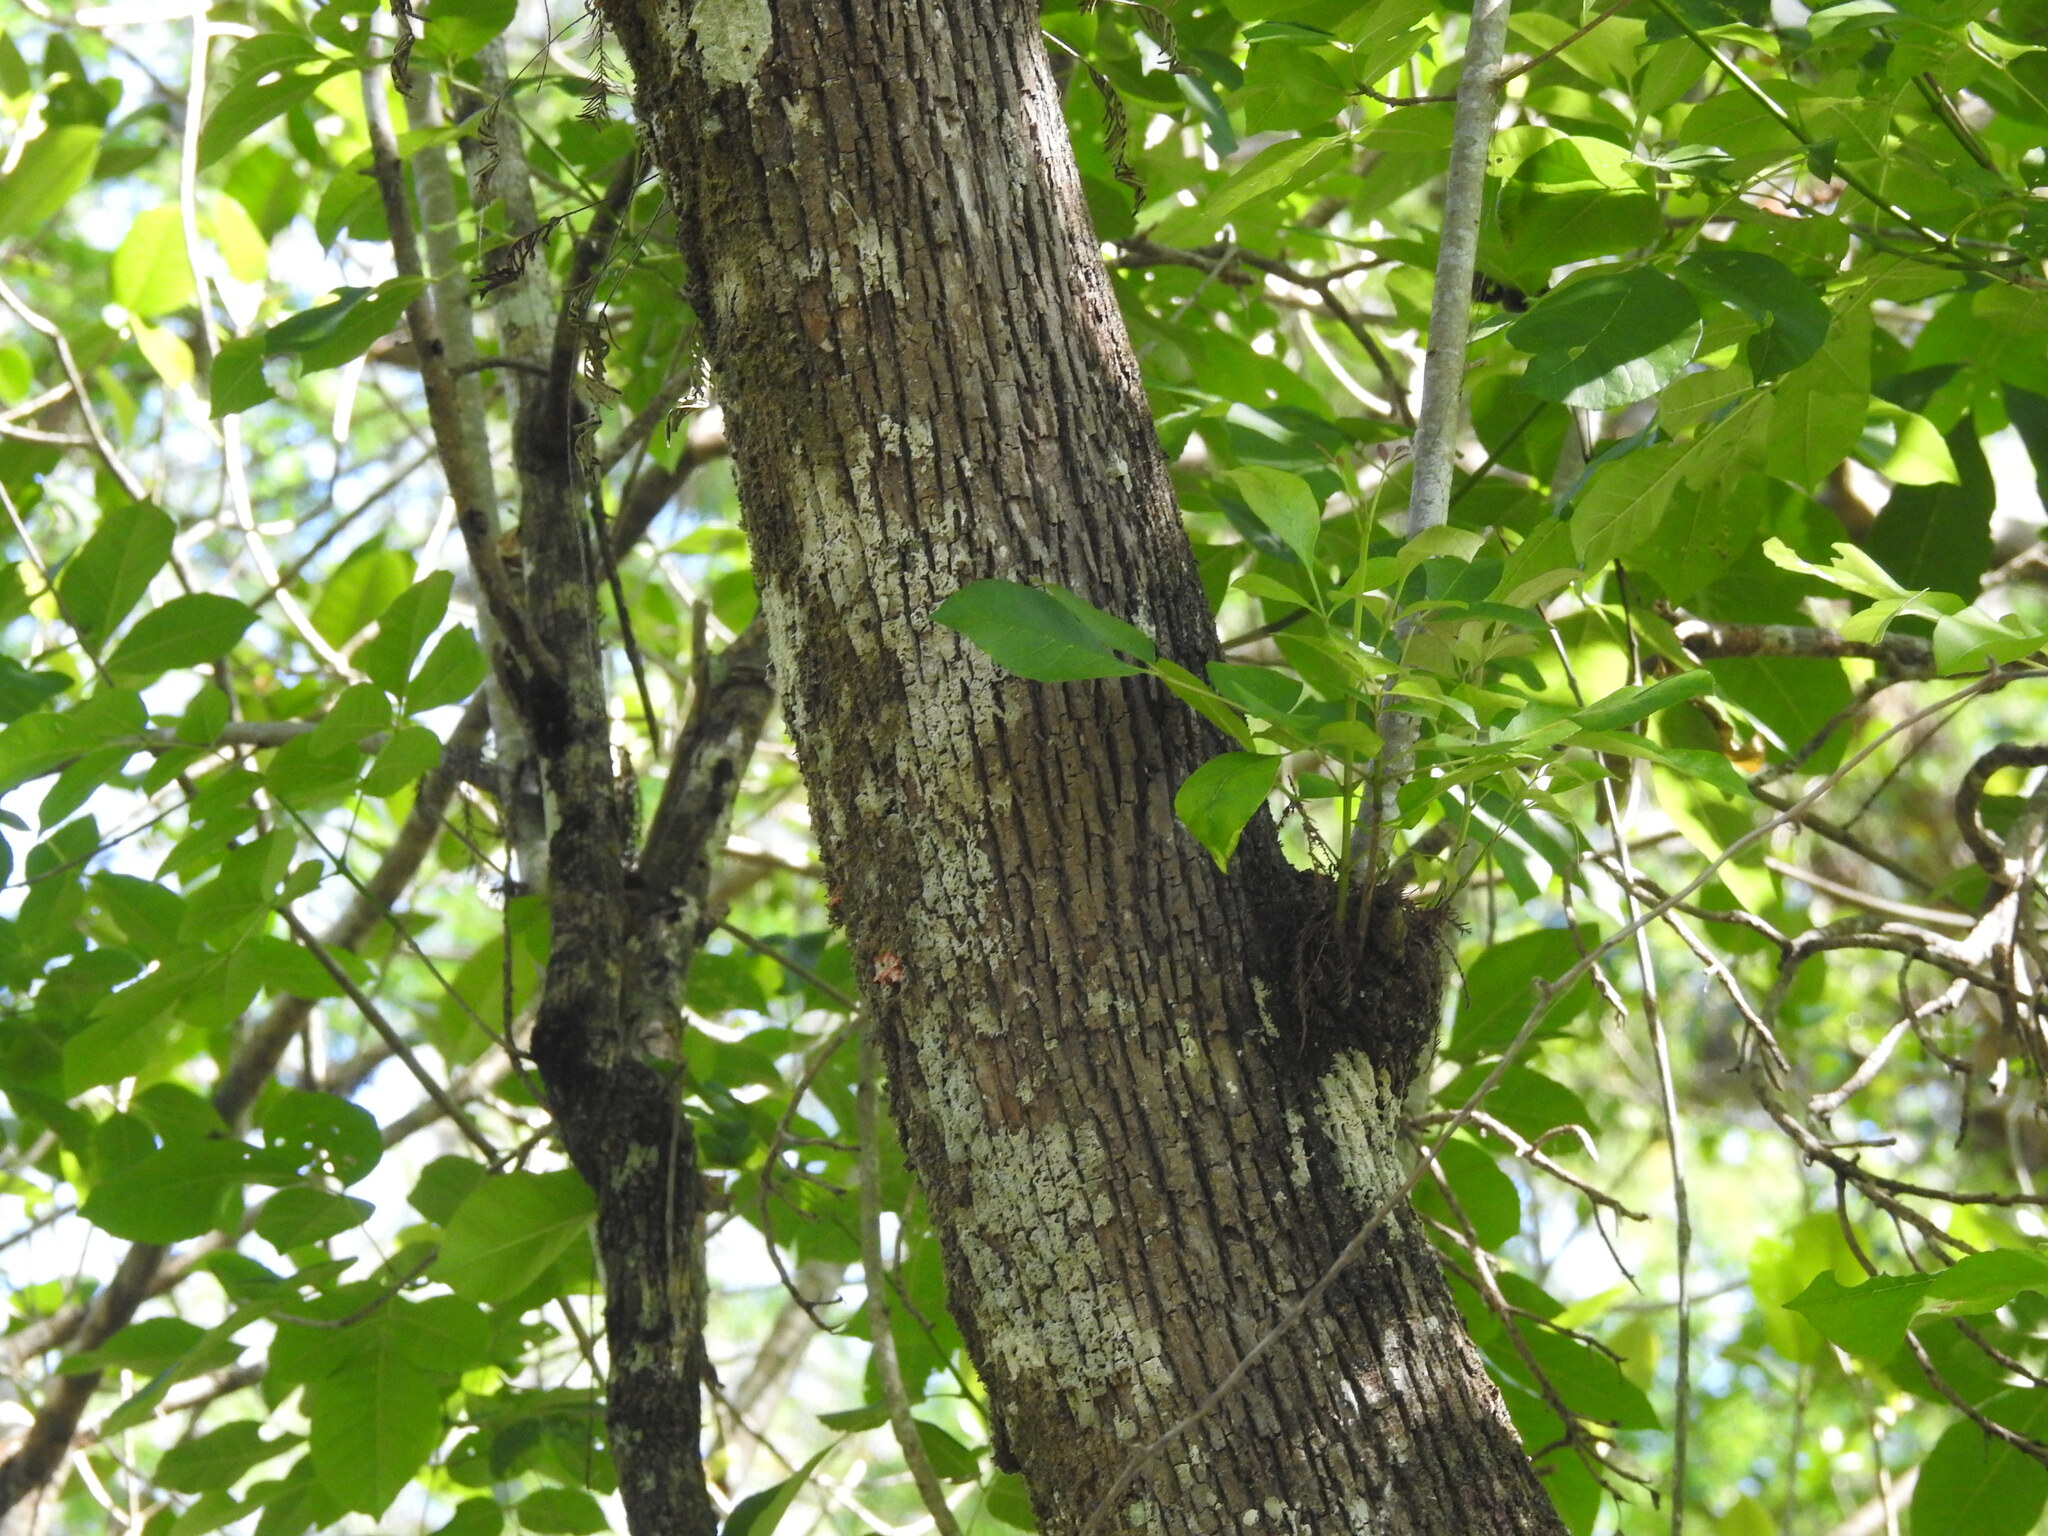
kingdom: Plantae
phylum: Tracheophyta
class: Magnoliopsida
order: Lamiales
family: Oleaceae
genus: Fraxinus
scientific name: Fraxinus caroliniana
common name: Carolina ash
